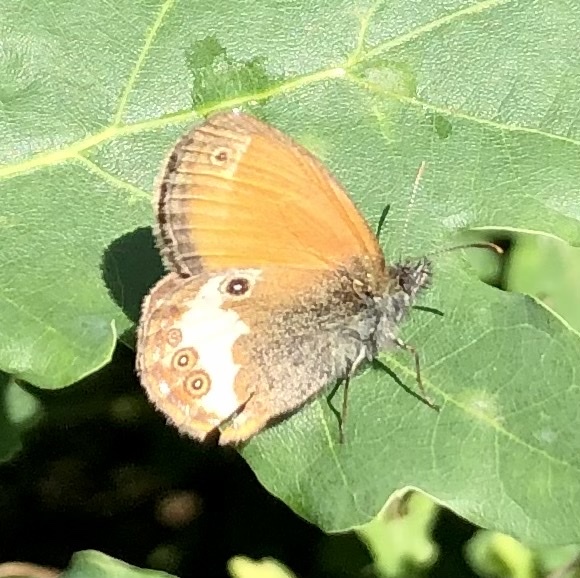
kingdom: Animalia
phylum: Arthropoda
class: Insecta
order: Lepidoptera
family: Nymphalidae
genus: Coenonympha
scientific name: Coenonympha arcania
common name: Pearly heath
